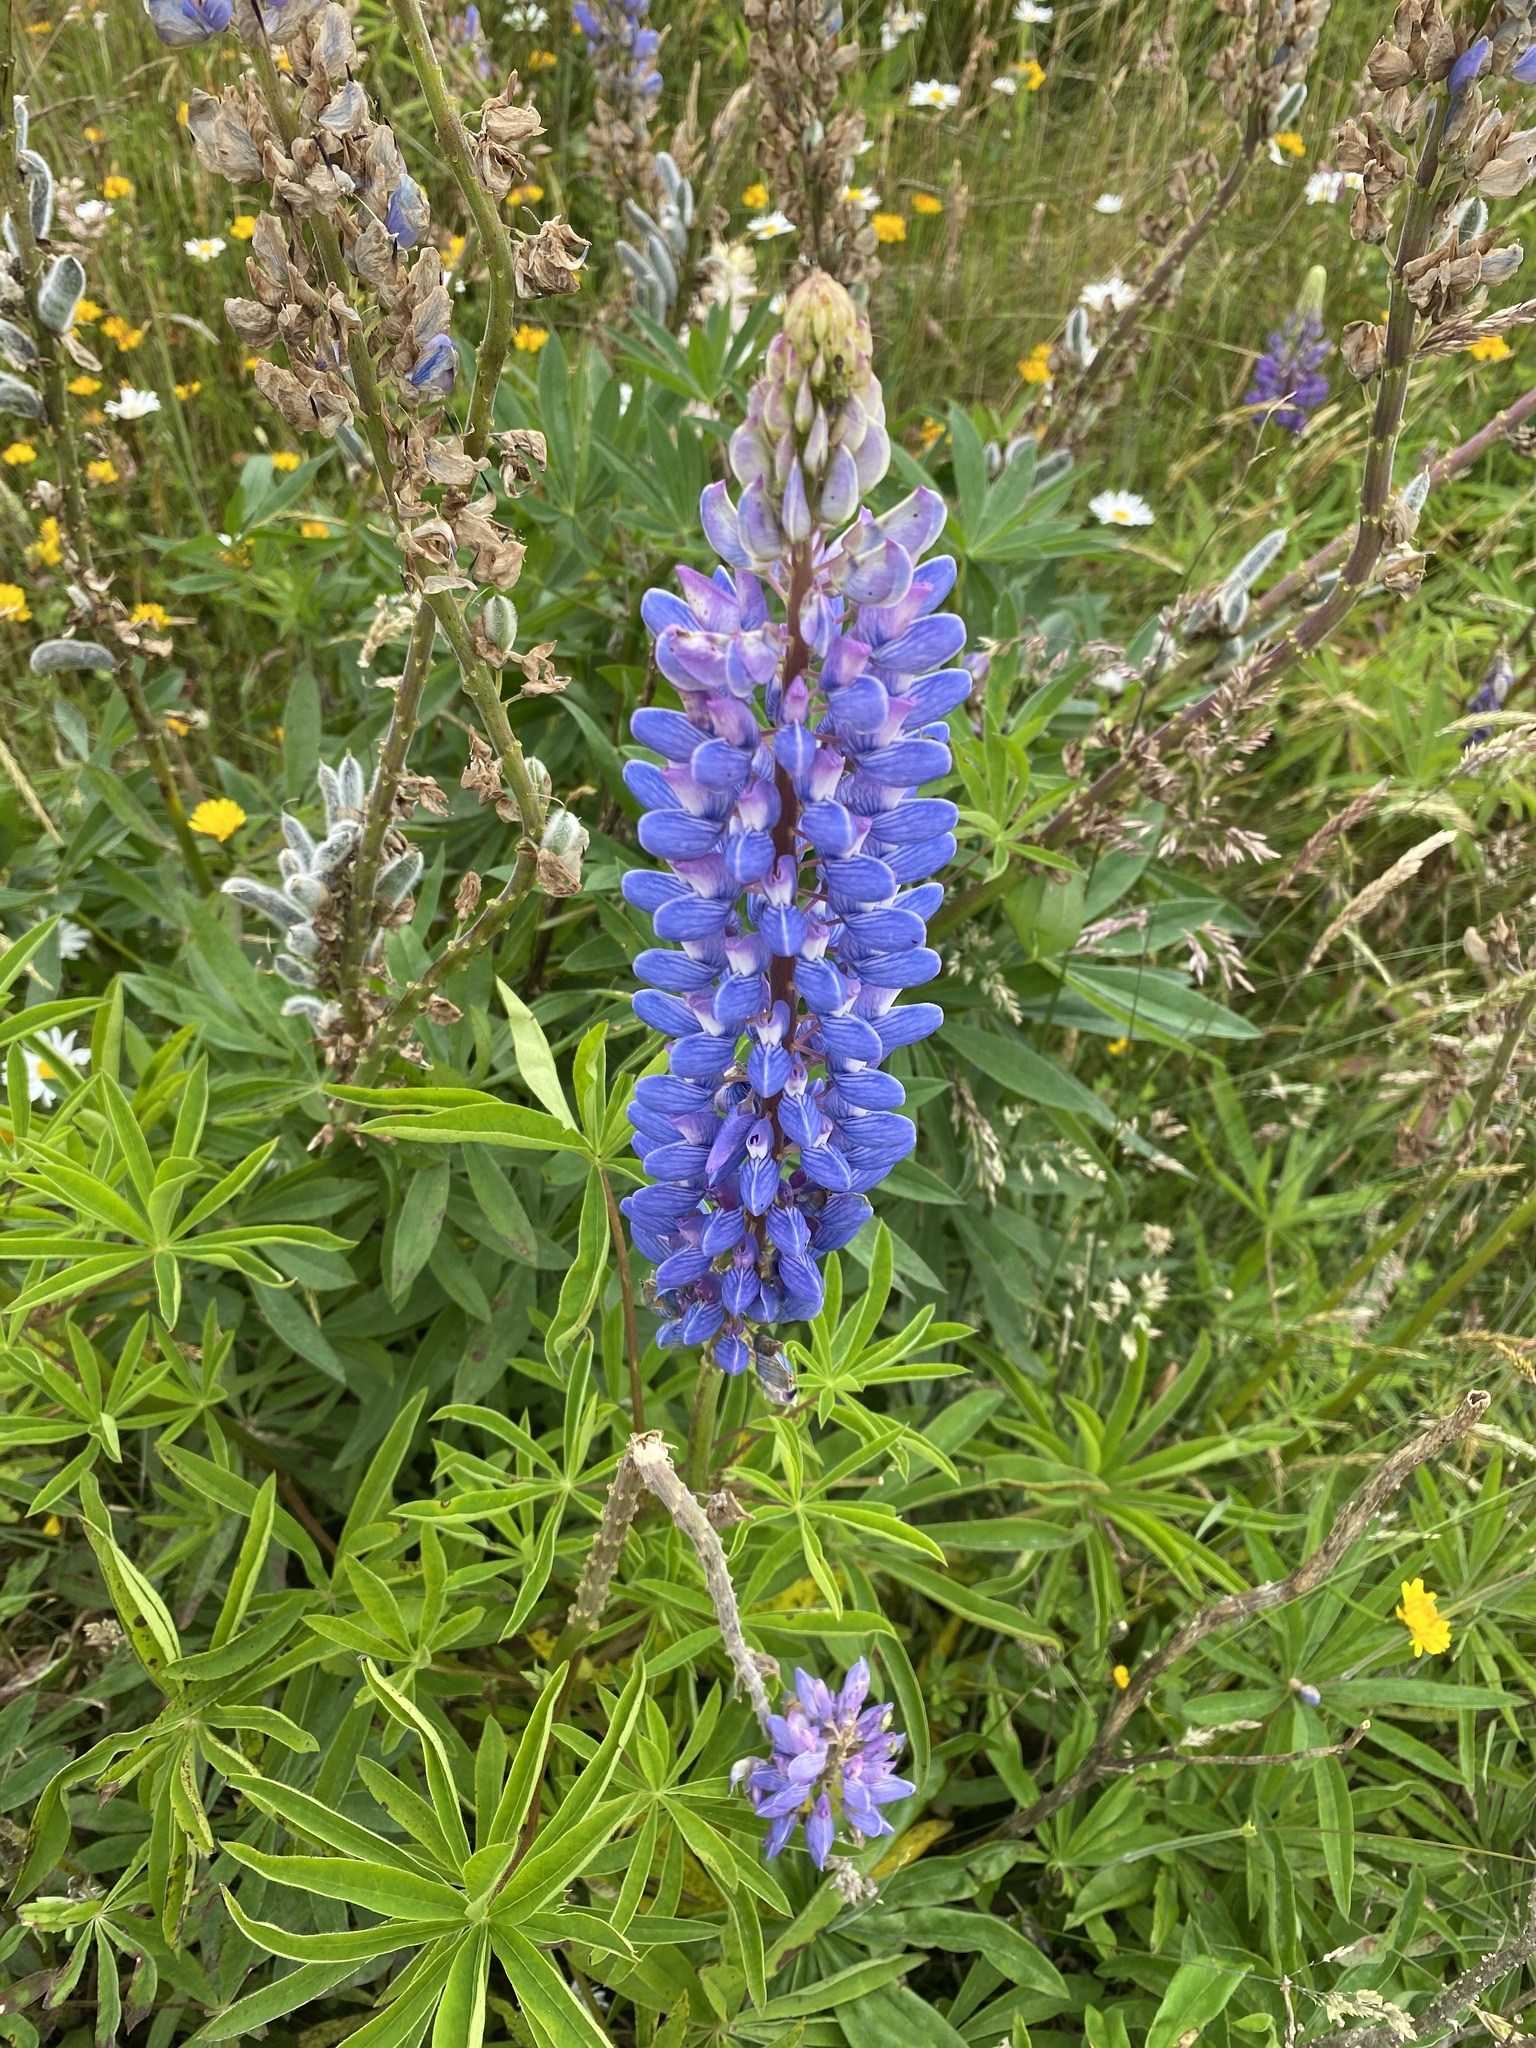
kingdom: Plantae
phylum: Tracheophyta
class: Magnoliopsida
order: Fabales
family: Fabaceae
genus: Lupinus
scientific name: Lupinus polyphyllus
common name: Garden lupin
